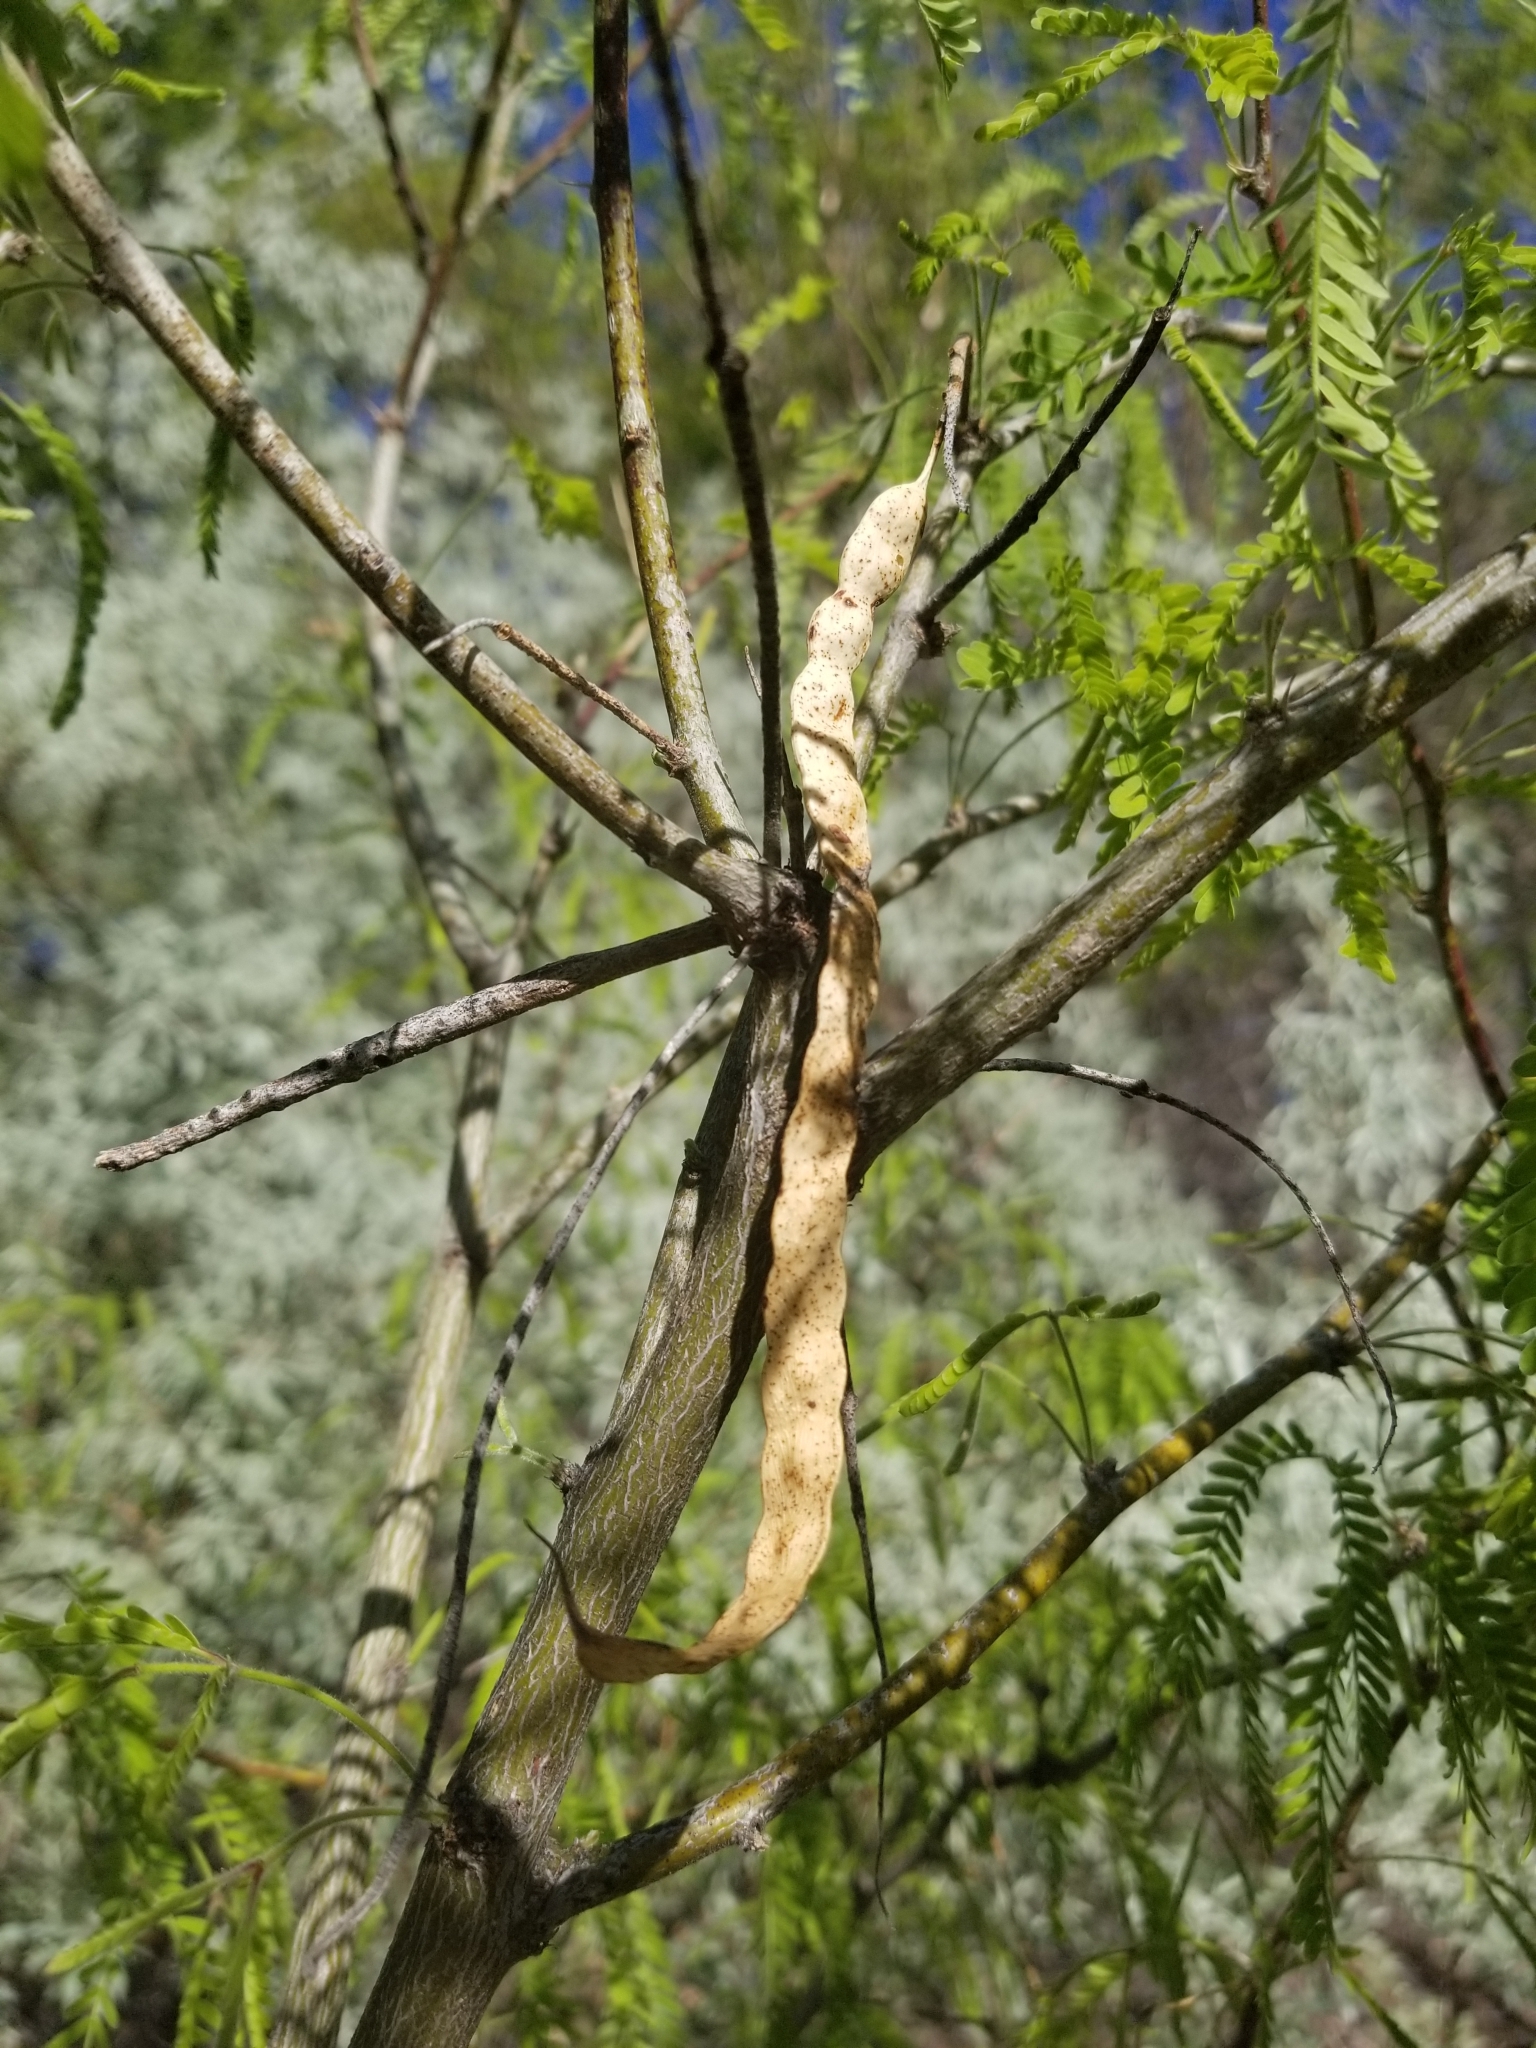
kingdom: Plantae
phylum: Tracheophyta
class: Magnoliopsida
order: Fabales
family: Fabaceae
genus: Prosopis
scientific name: Prosopis velutina
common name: Velvet mesquite
